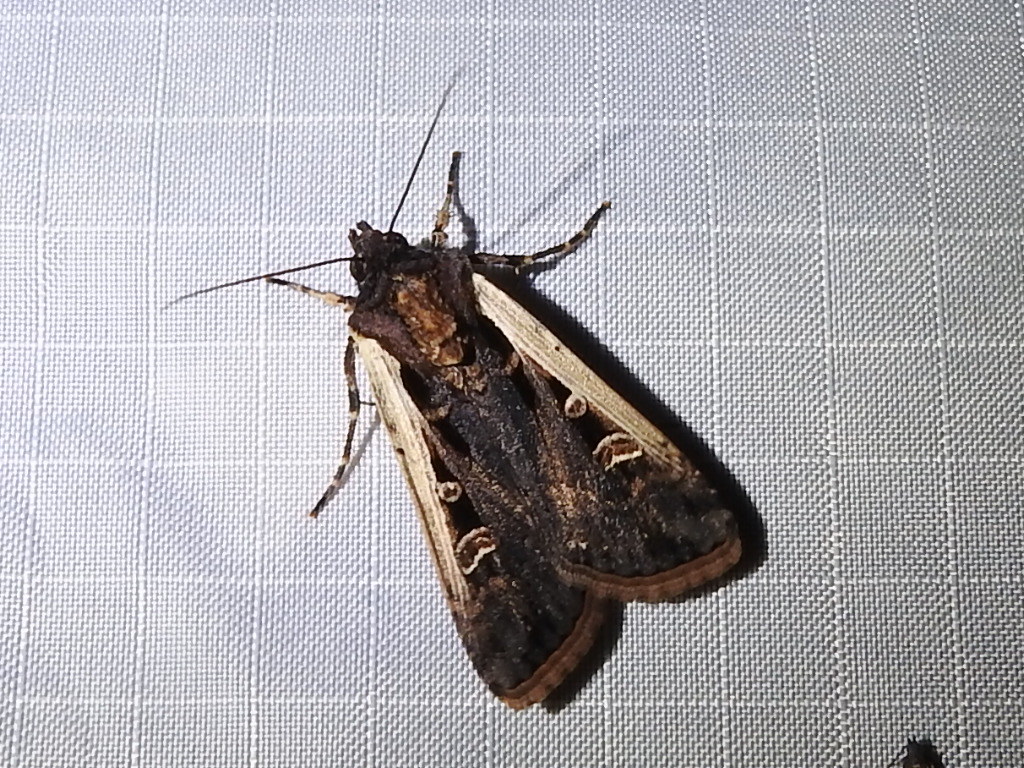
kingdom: Animalia
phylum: Arthropoda
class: Insecta
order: Lepidoptera
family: Noctuidae
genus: Striacosta
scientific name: Striacosta albicosta
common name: Western bean cutworm moth
